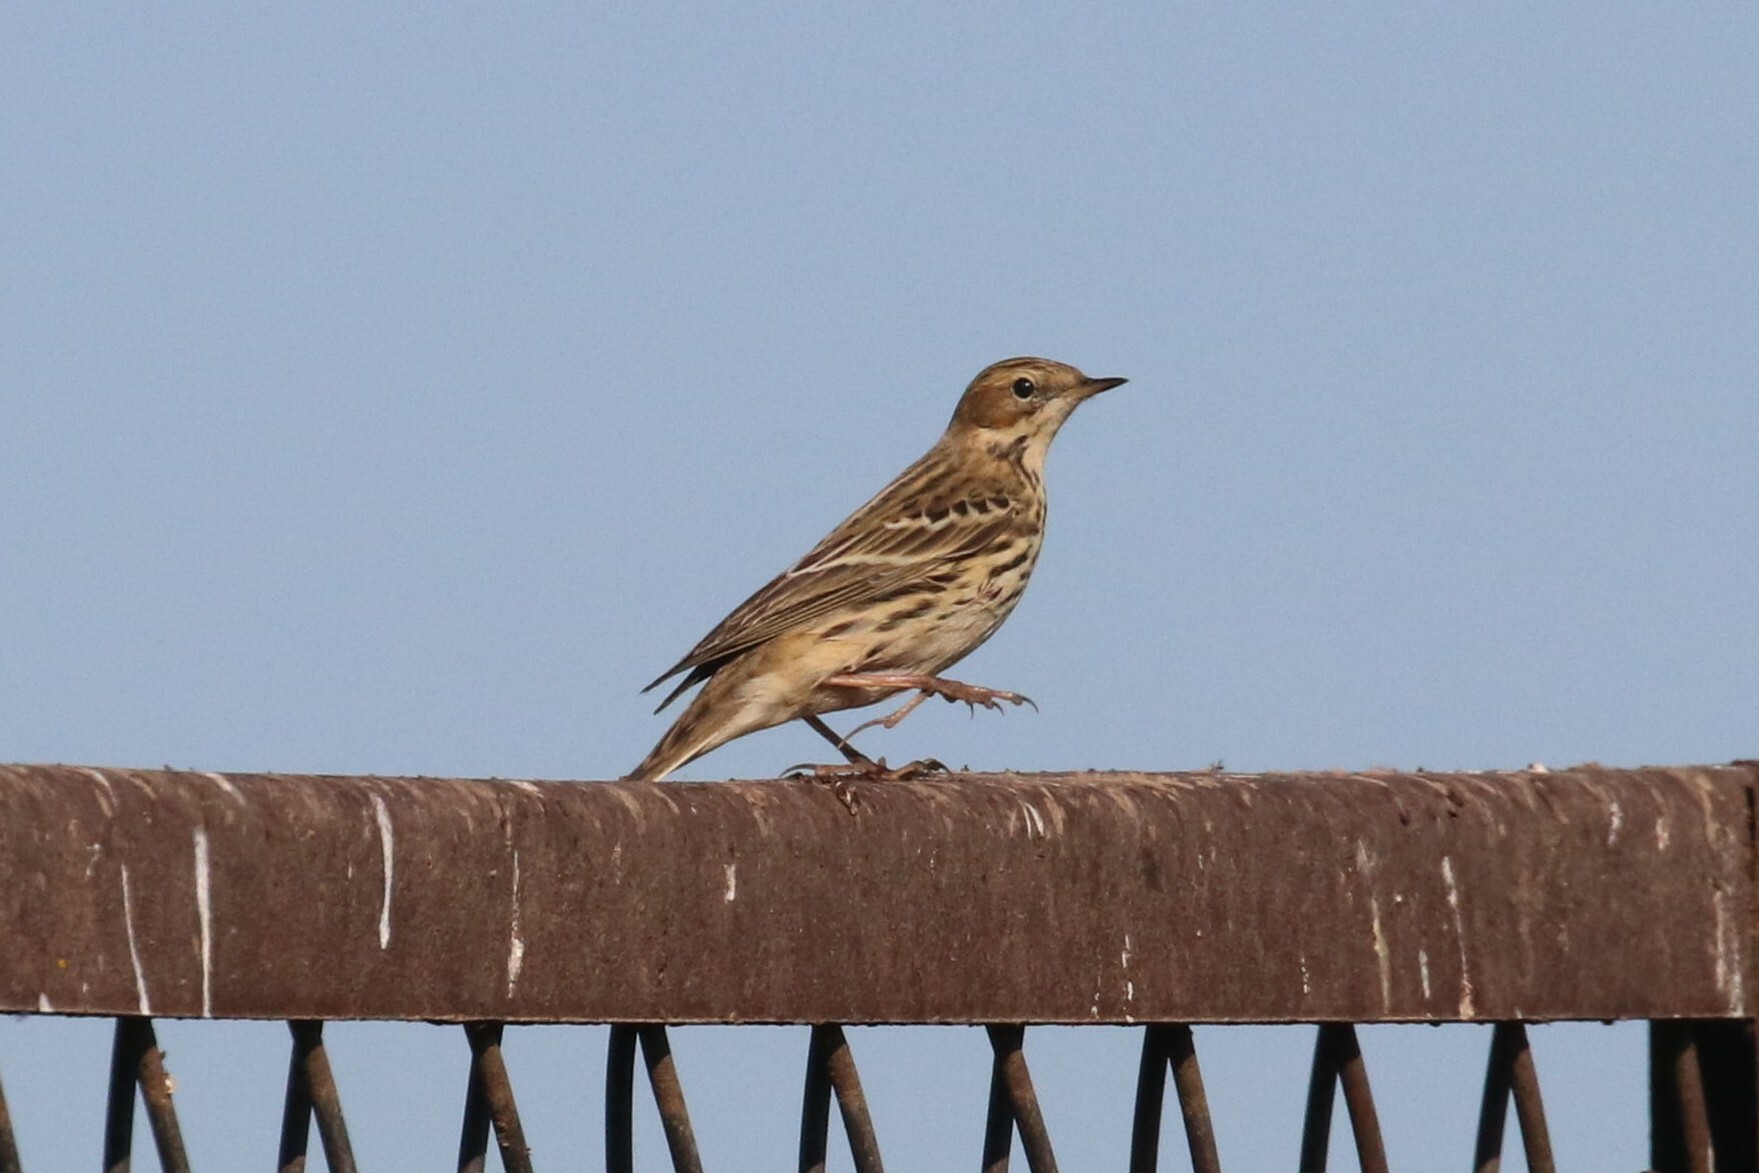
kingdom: Animalia
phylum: Chordata
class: Aves
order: Passeriformes
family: Motacillidae
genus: Anthus
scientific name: Anthus cervinus
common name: Red-throated pipit
